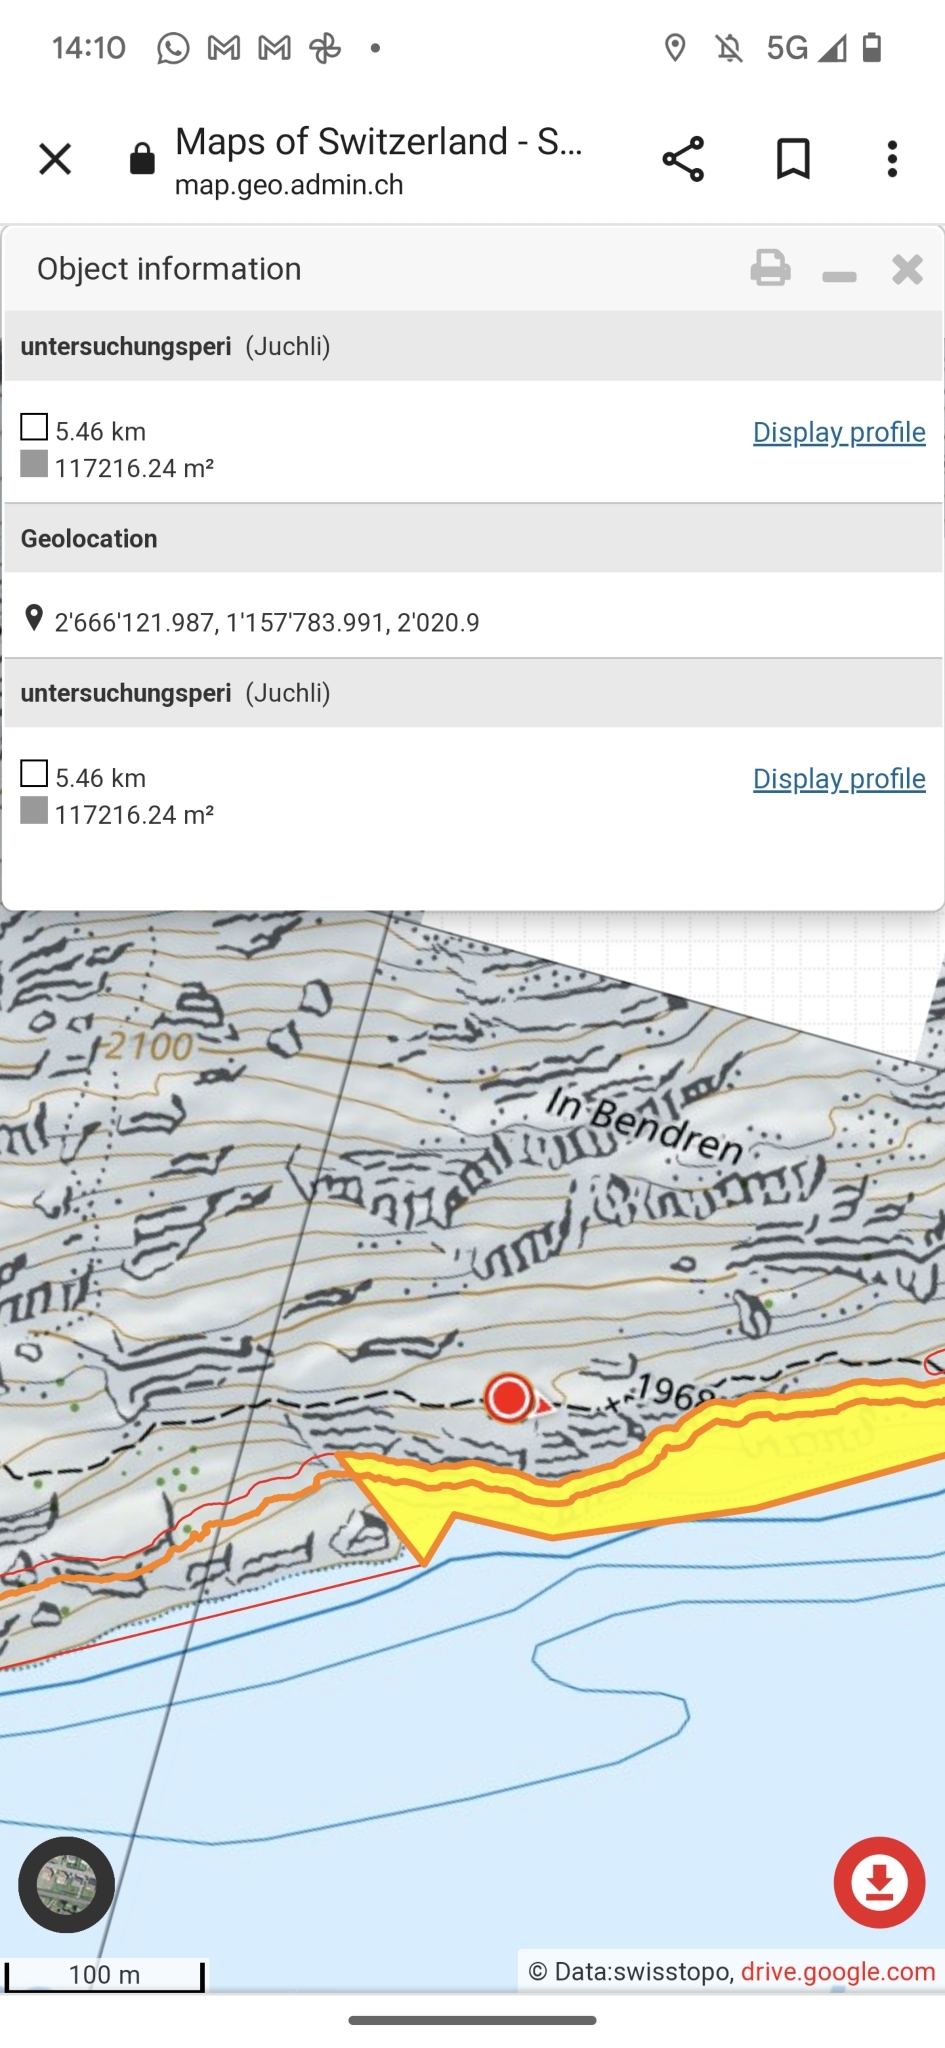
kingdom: Animalia
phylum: Arthropoda
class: Insecta
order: Hymenoptera
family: Formicidae
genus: Formica
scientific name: Formica
